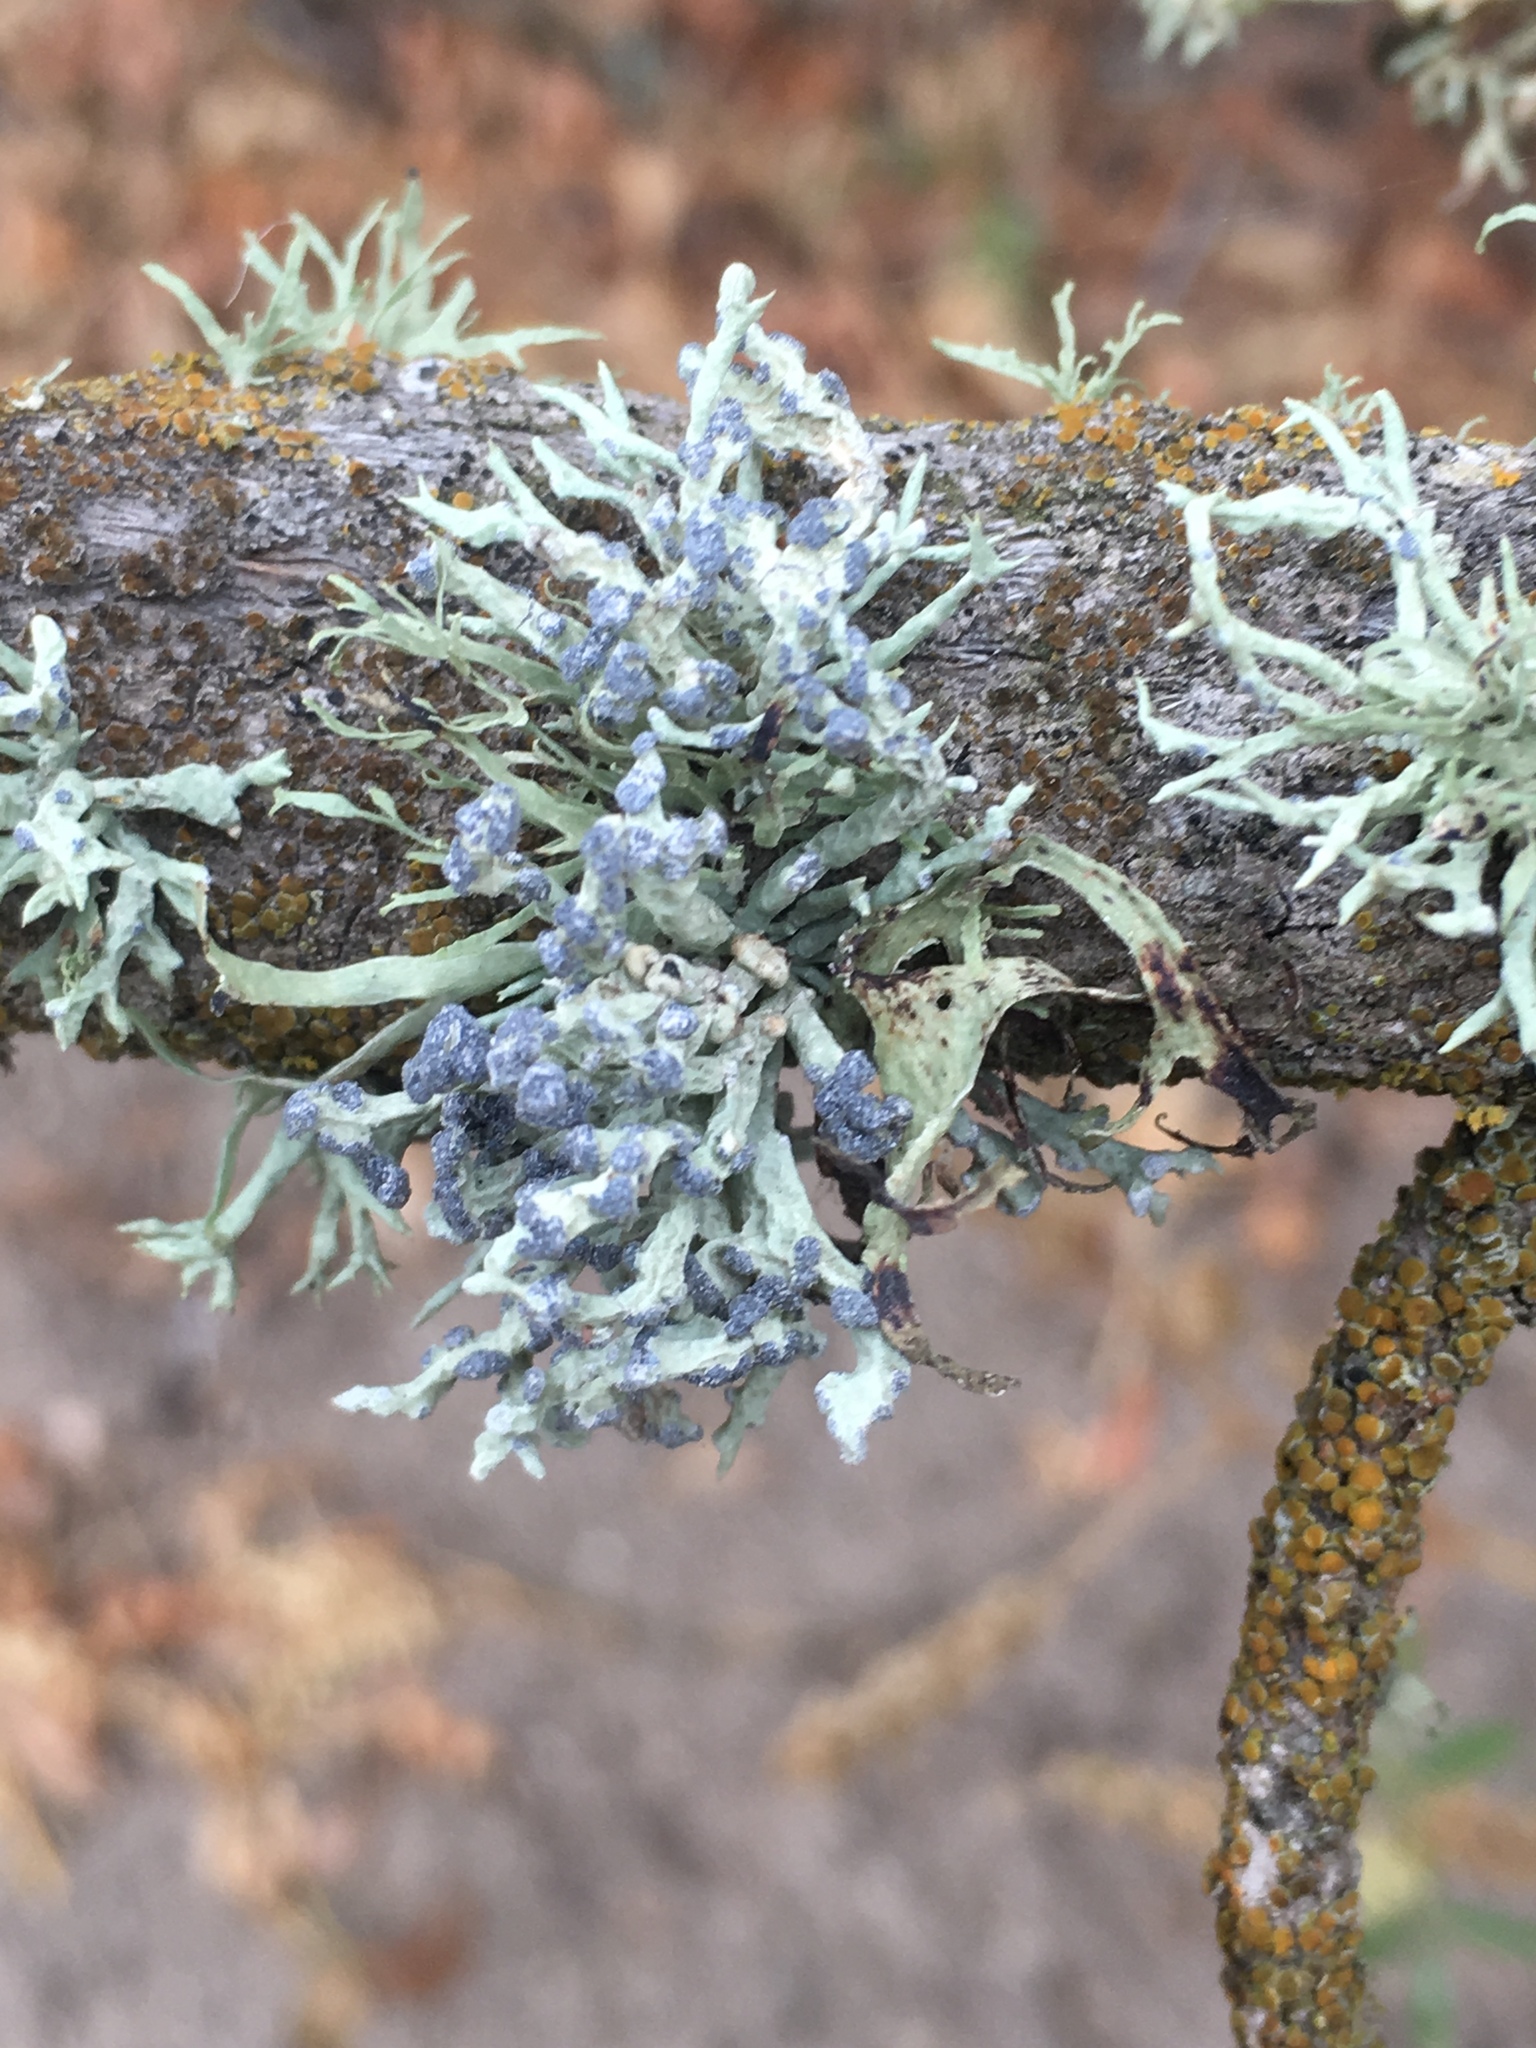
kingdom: Fungi
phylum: Ascomycota
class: Lecanoromycetes
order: Lecanorales
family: Ramalinaceae
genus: Niebla
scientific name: Niebla cephalota
